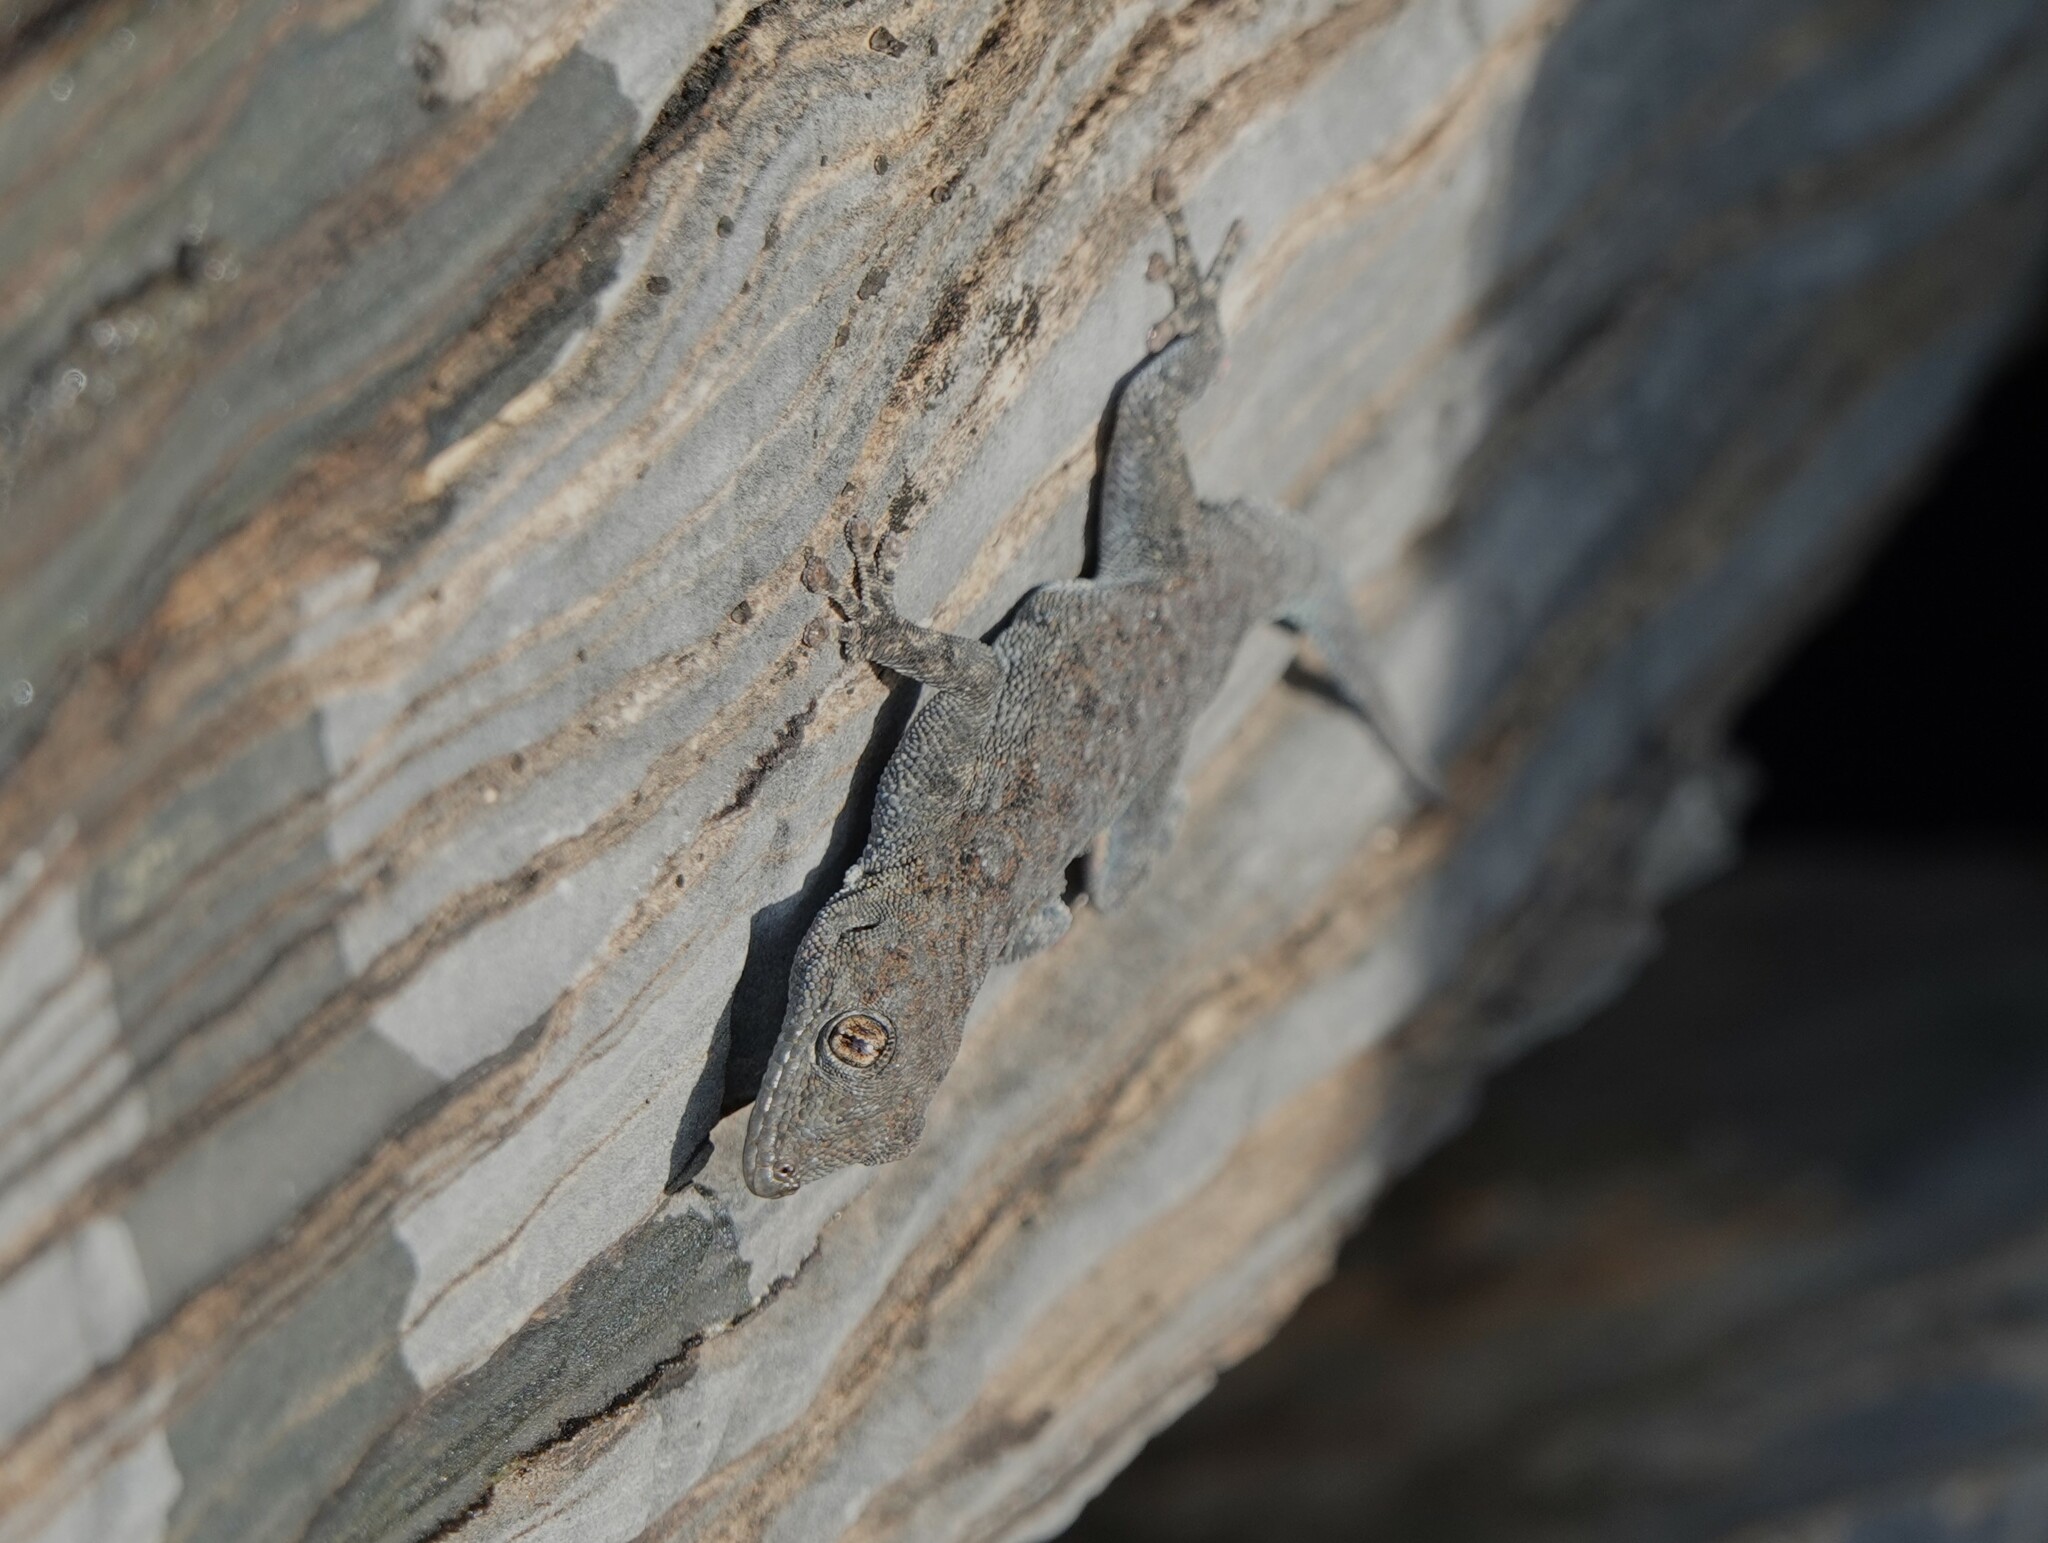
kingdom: Animalia
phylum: Chordata
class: Squamata
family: Gekkonidae
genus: Rhoptropus
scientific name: Rhoptropus barnardi
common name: Barnard’s namib day gecko
